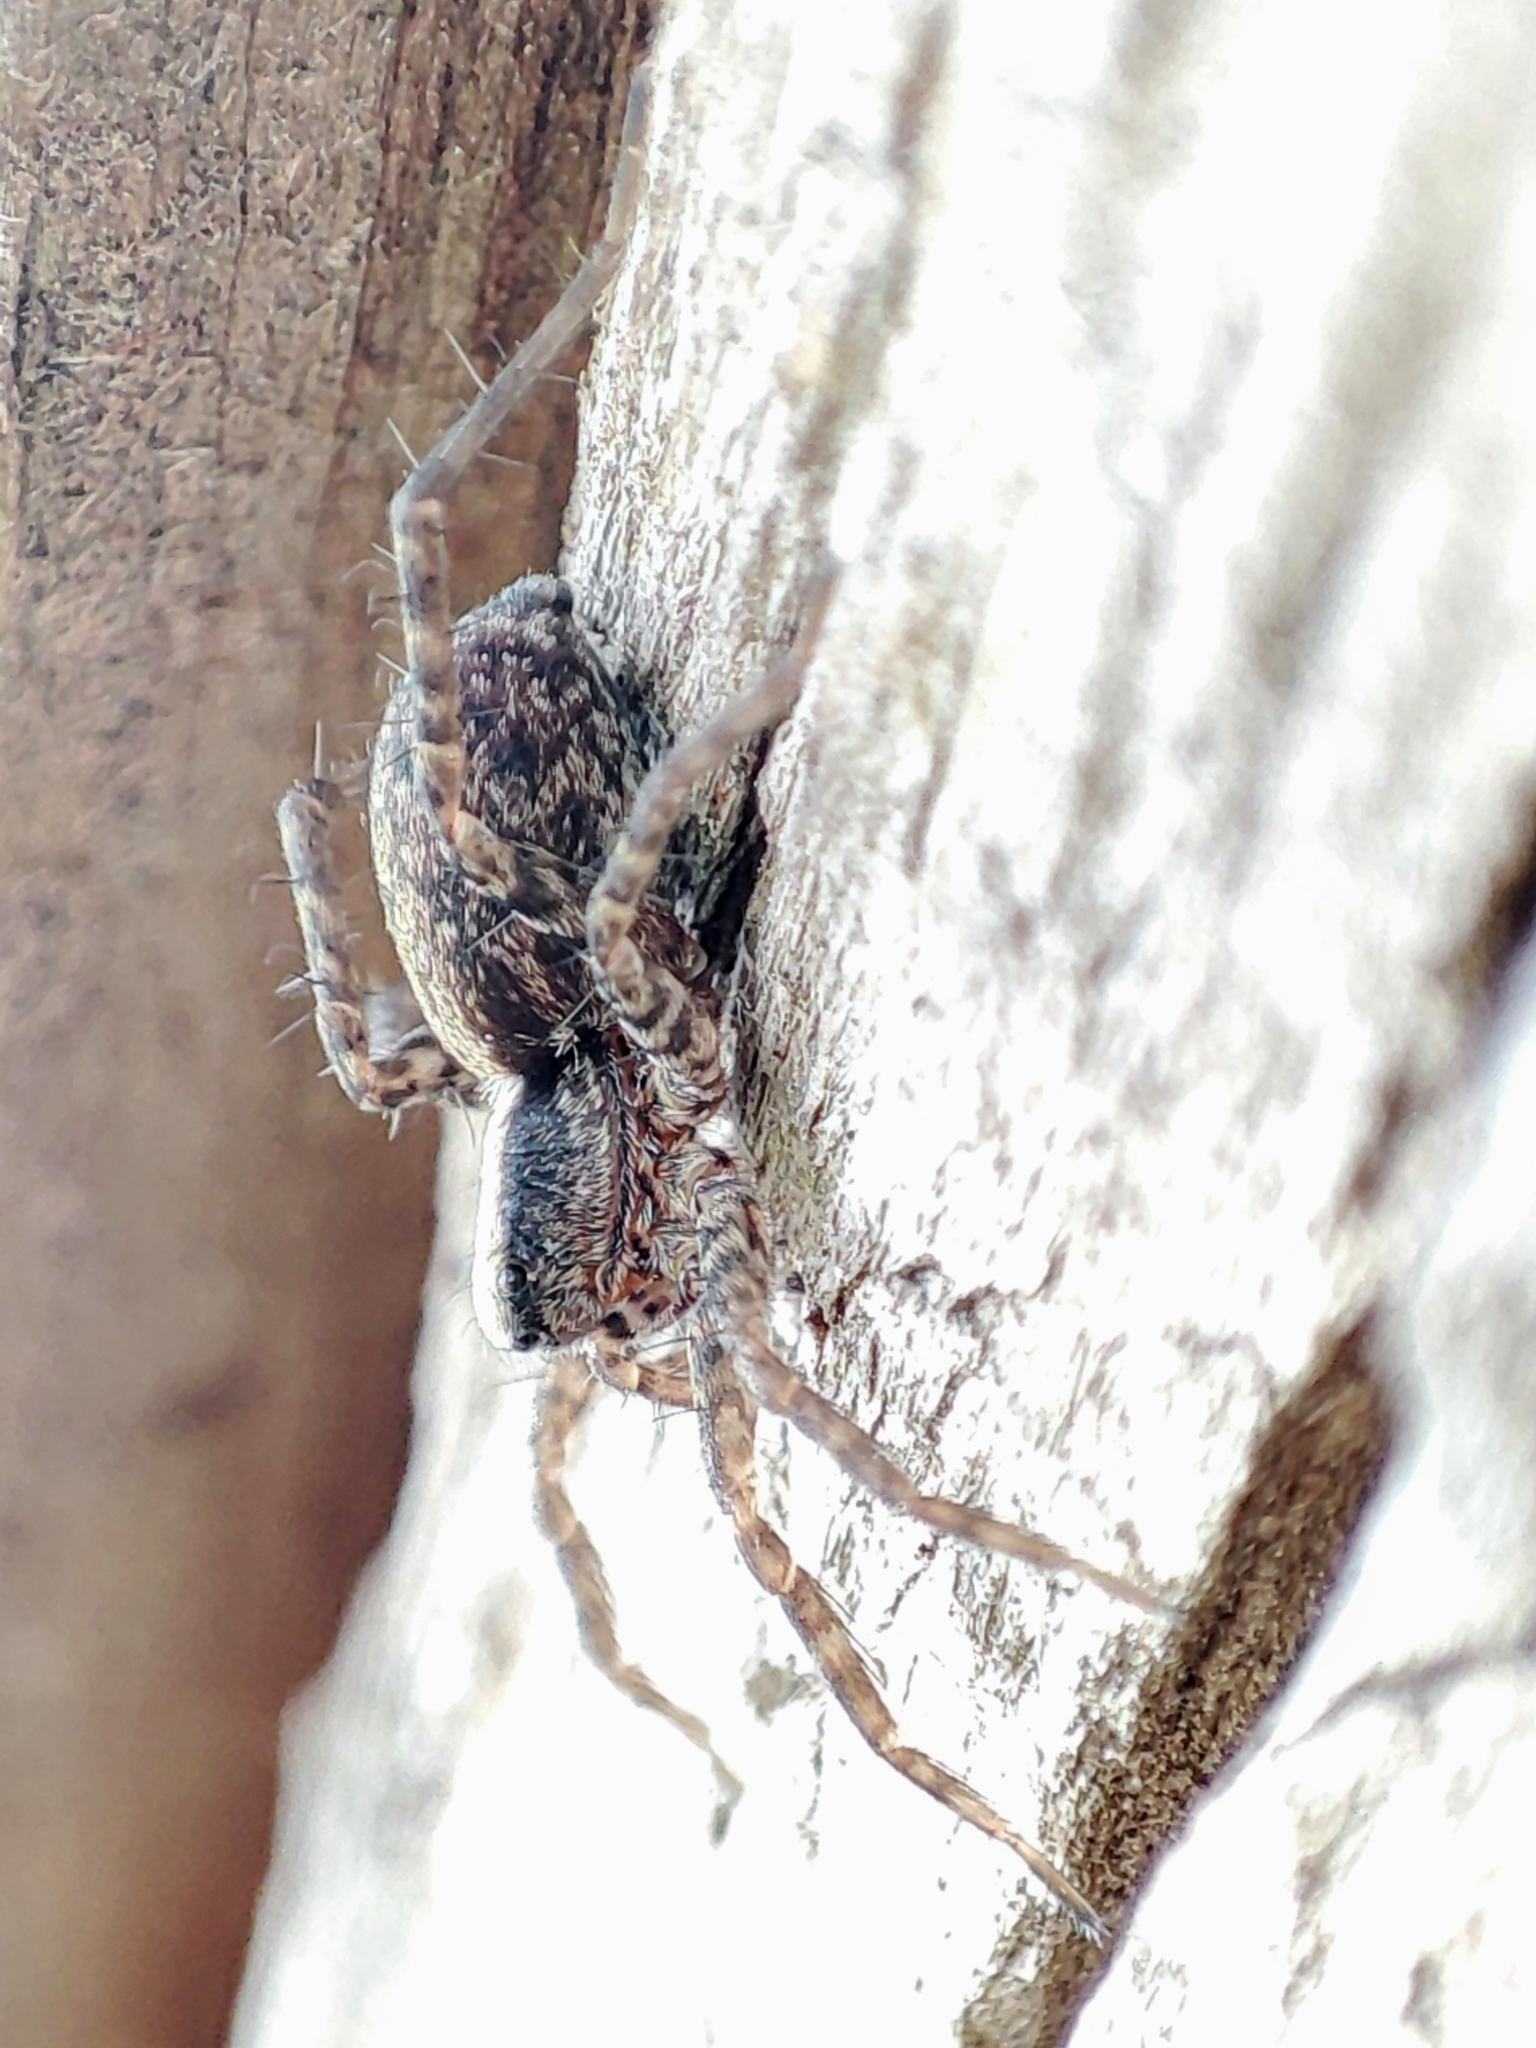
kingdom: Animalia
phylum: Arthropoda
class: Arachnida
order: Araneae
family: Lycosidae
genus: Pardosa
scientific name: Pardosa
